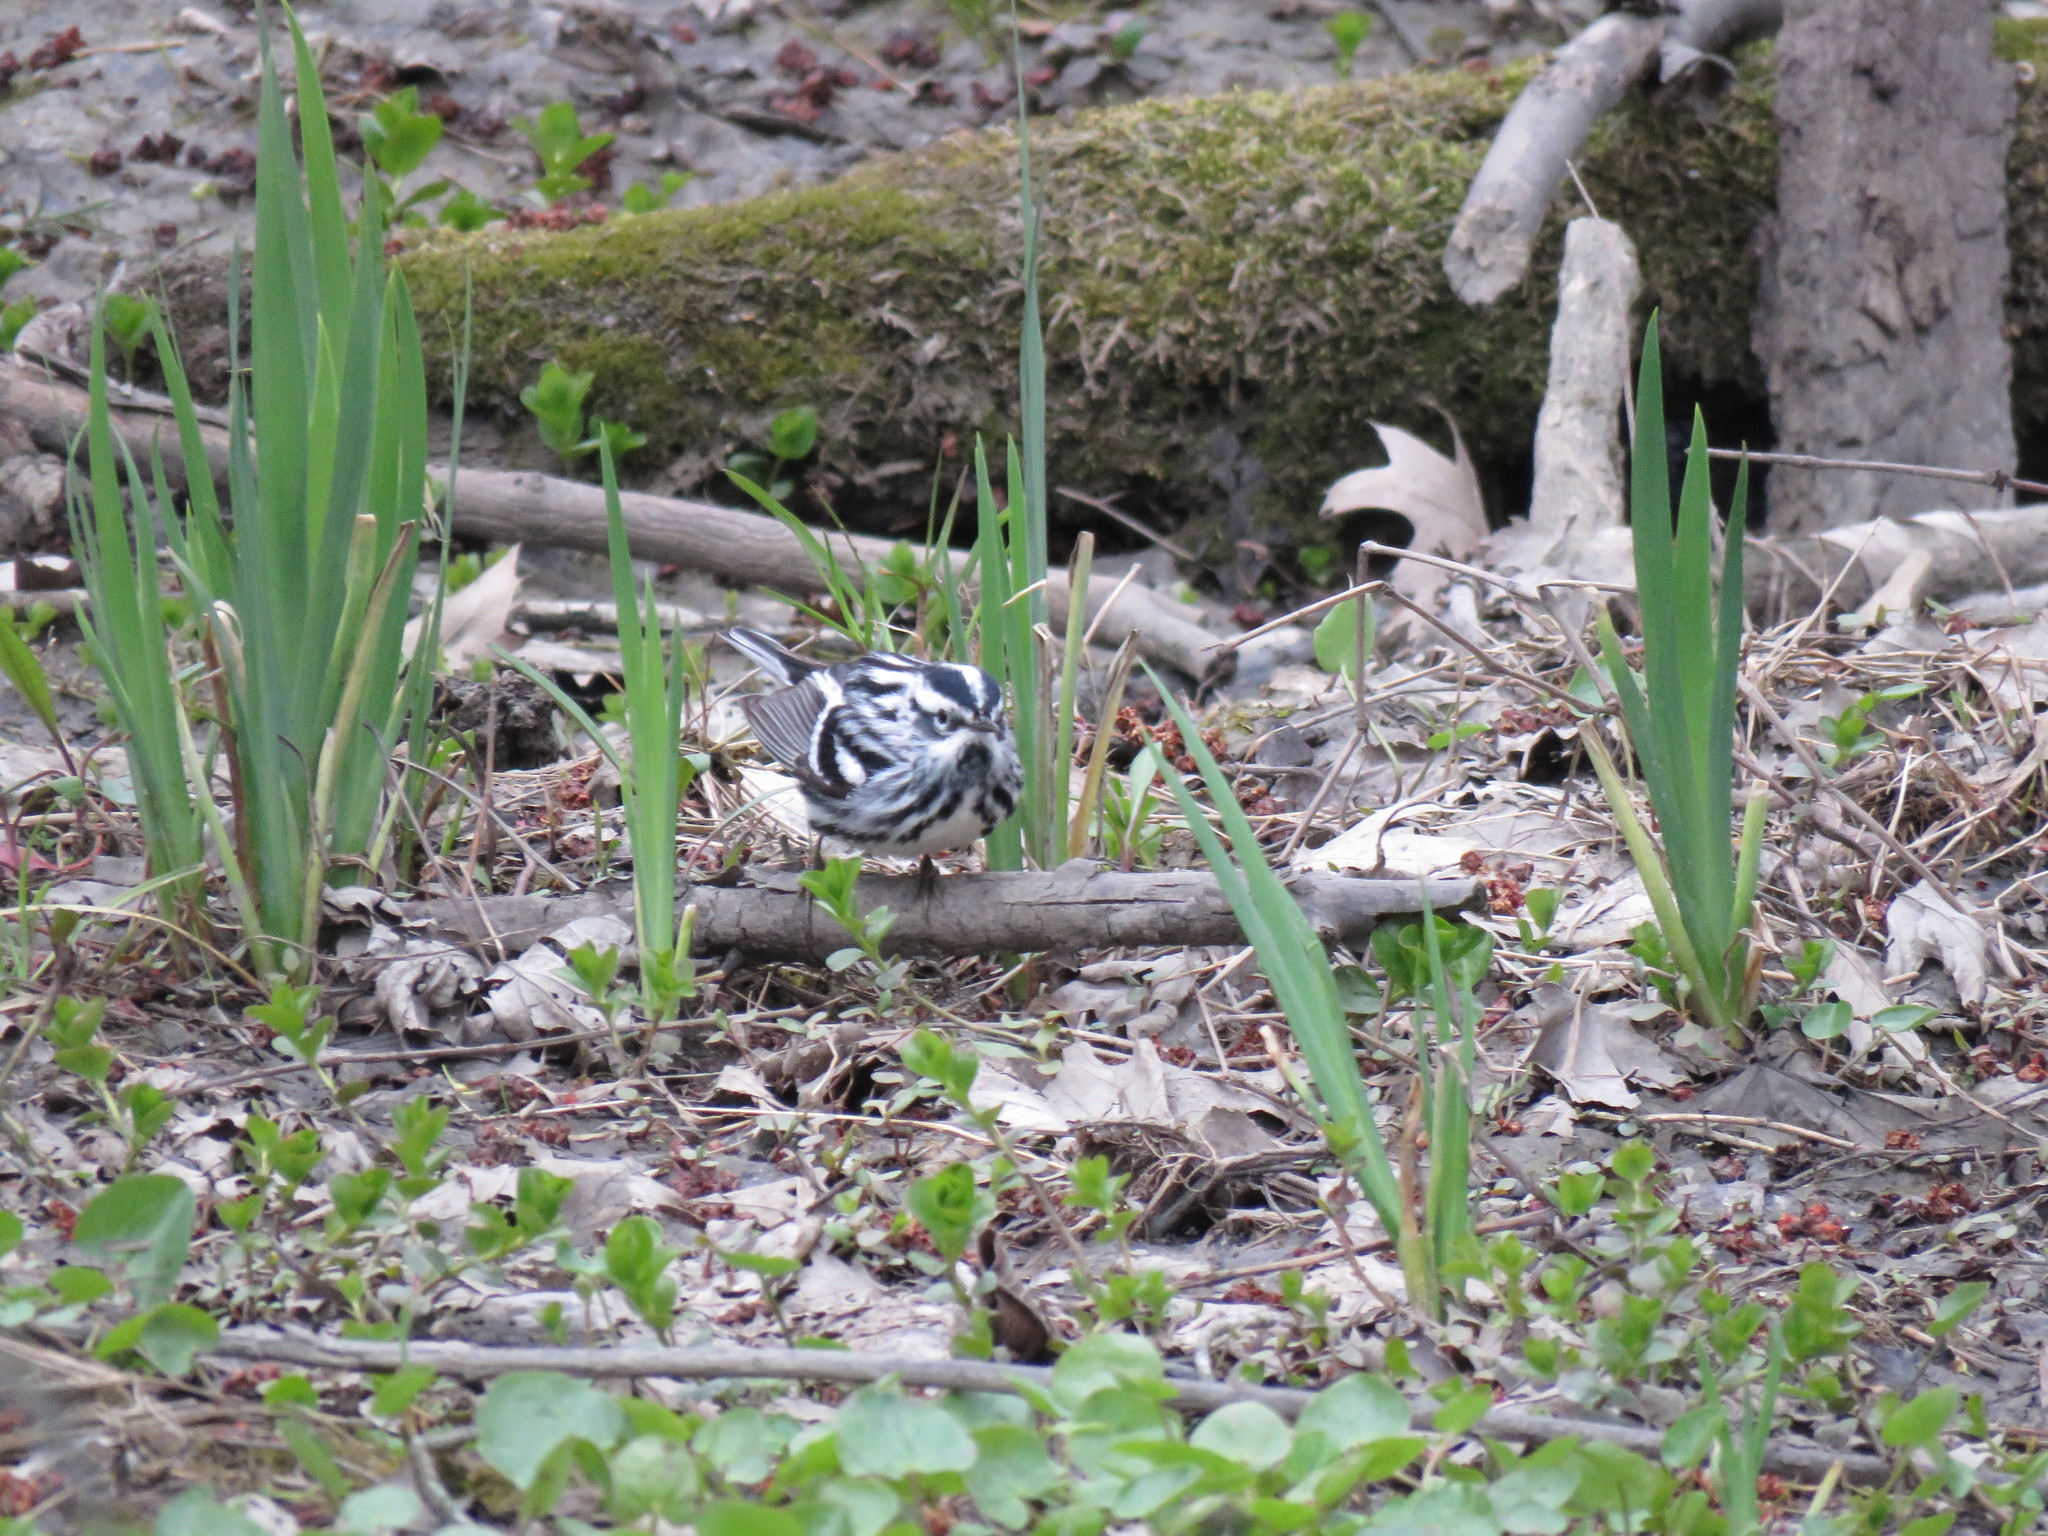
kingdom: Animalia
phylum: Chordata
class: Aves
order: Passeriformes
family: Parulidae
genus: Mniotilta
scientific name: Mniotilta varia
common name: Black-and-white warbler
